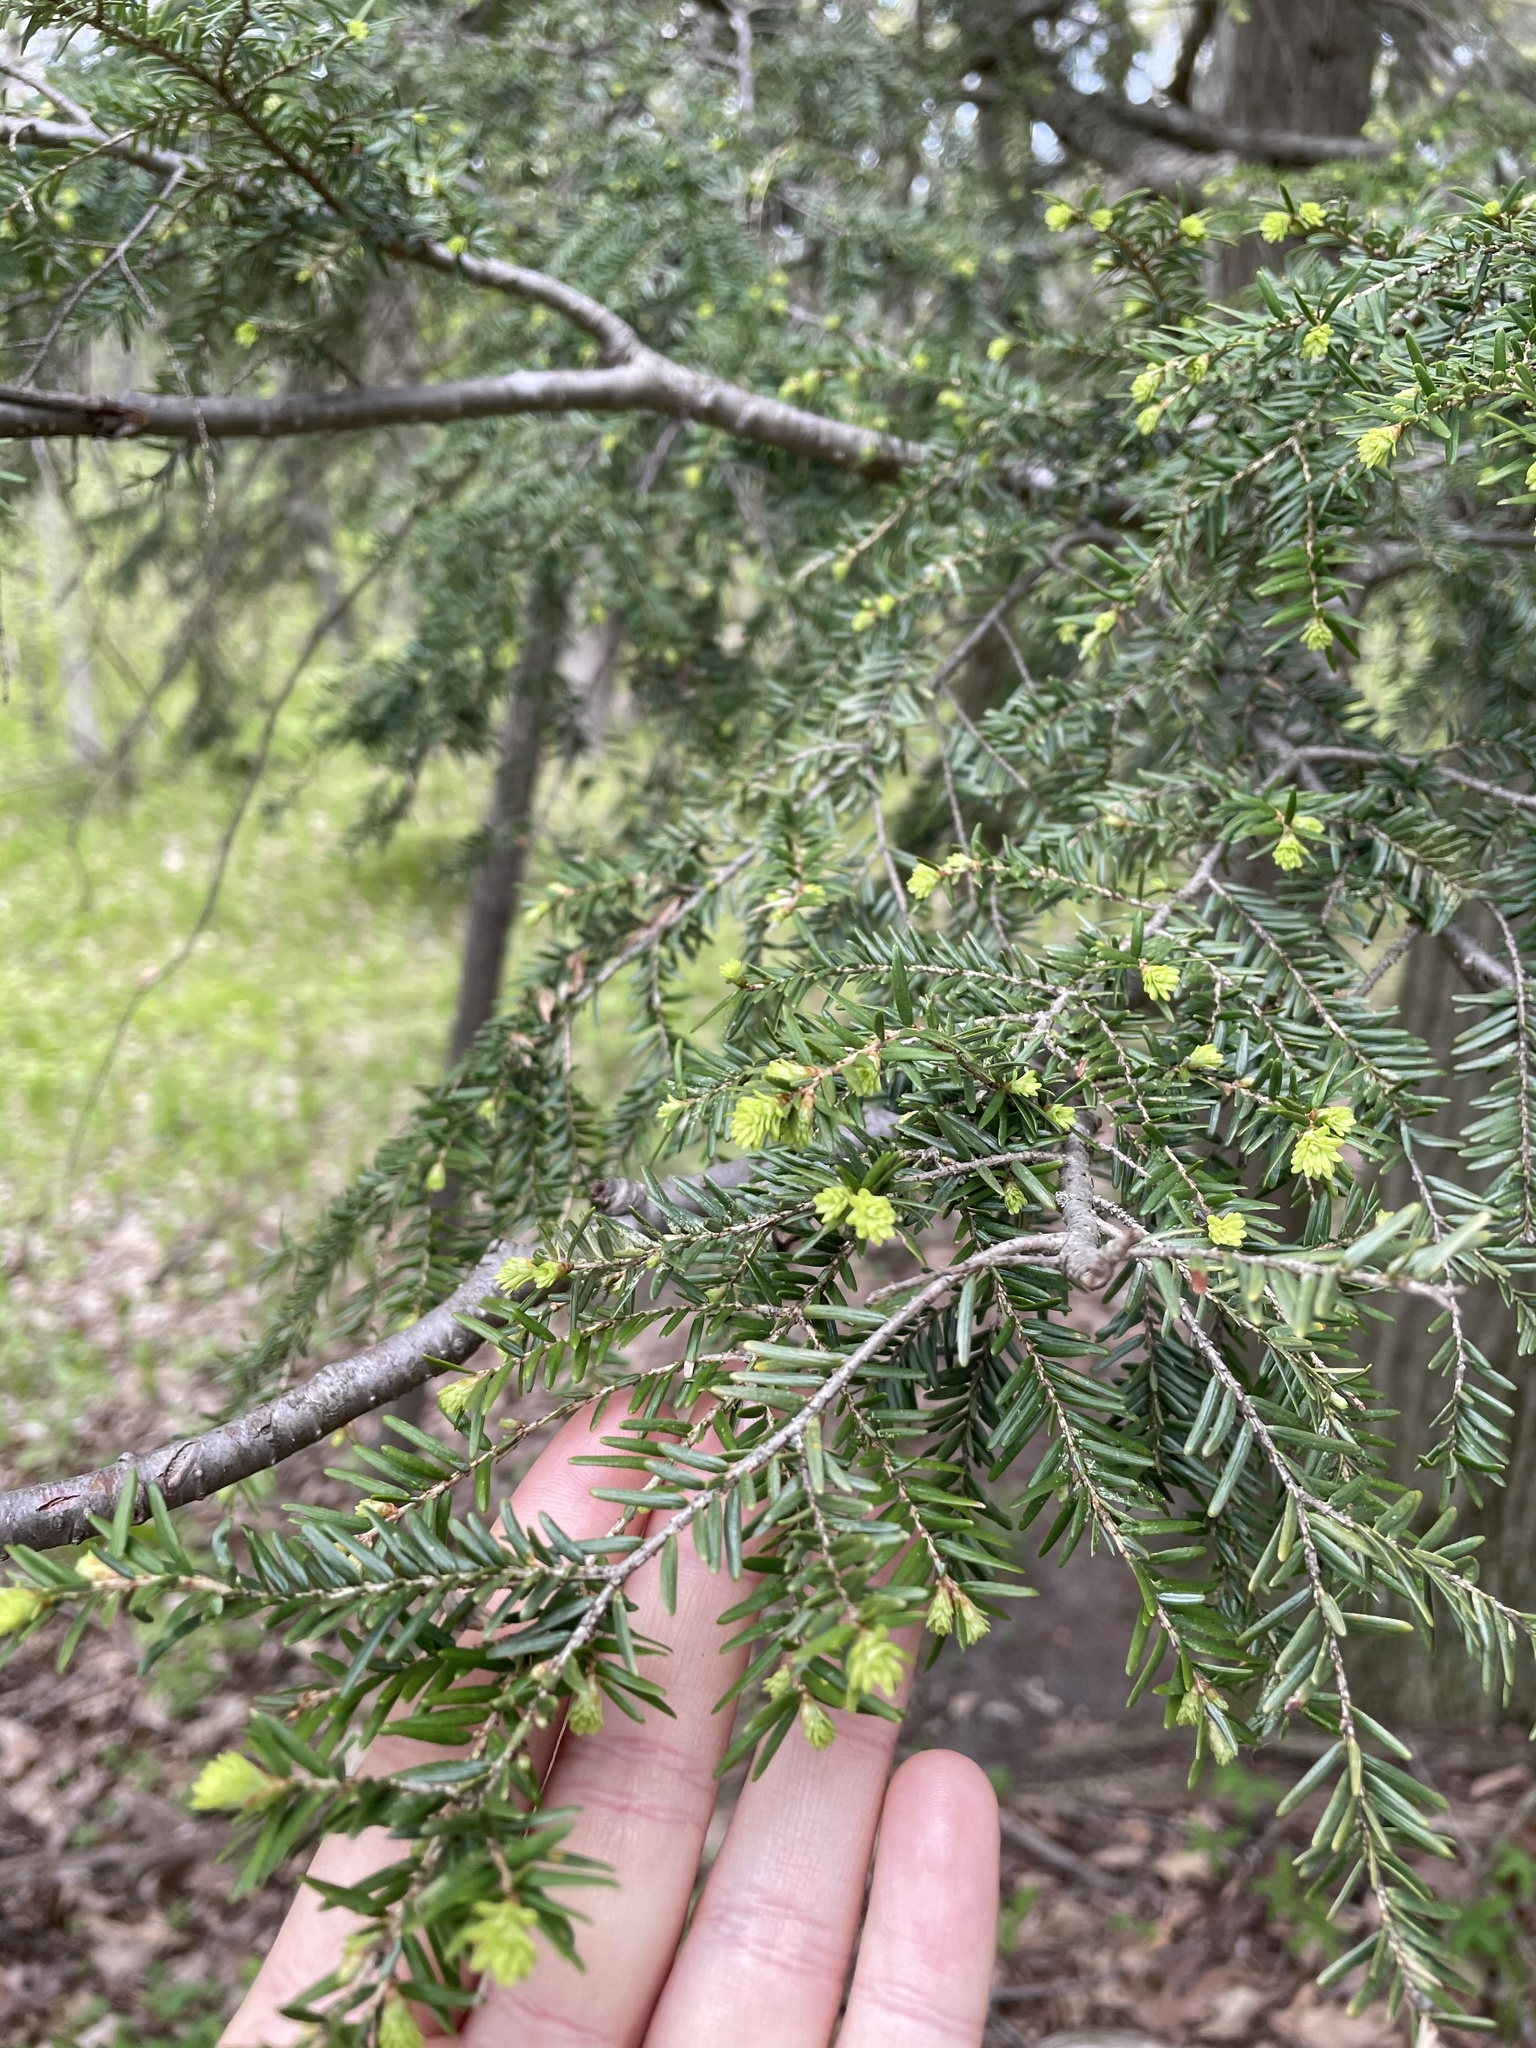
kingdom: Plantae
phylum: Tracheophyta
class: Pinopsida
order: Pinales
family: Pinaceae
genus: Tsuga
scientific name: Tsuga canadensis
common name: Eastern hemlock
